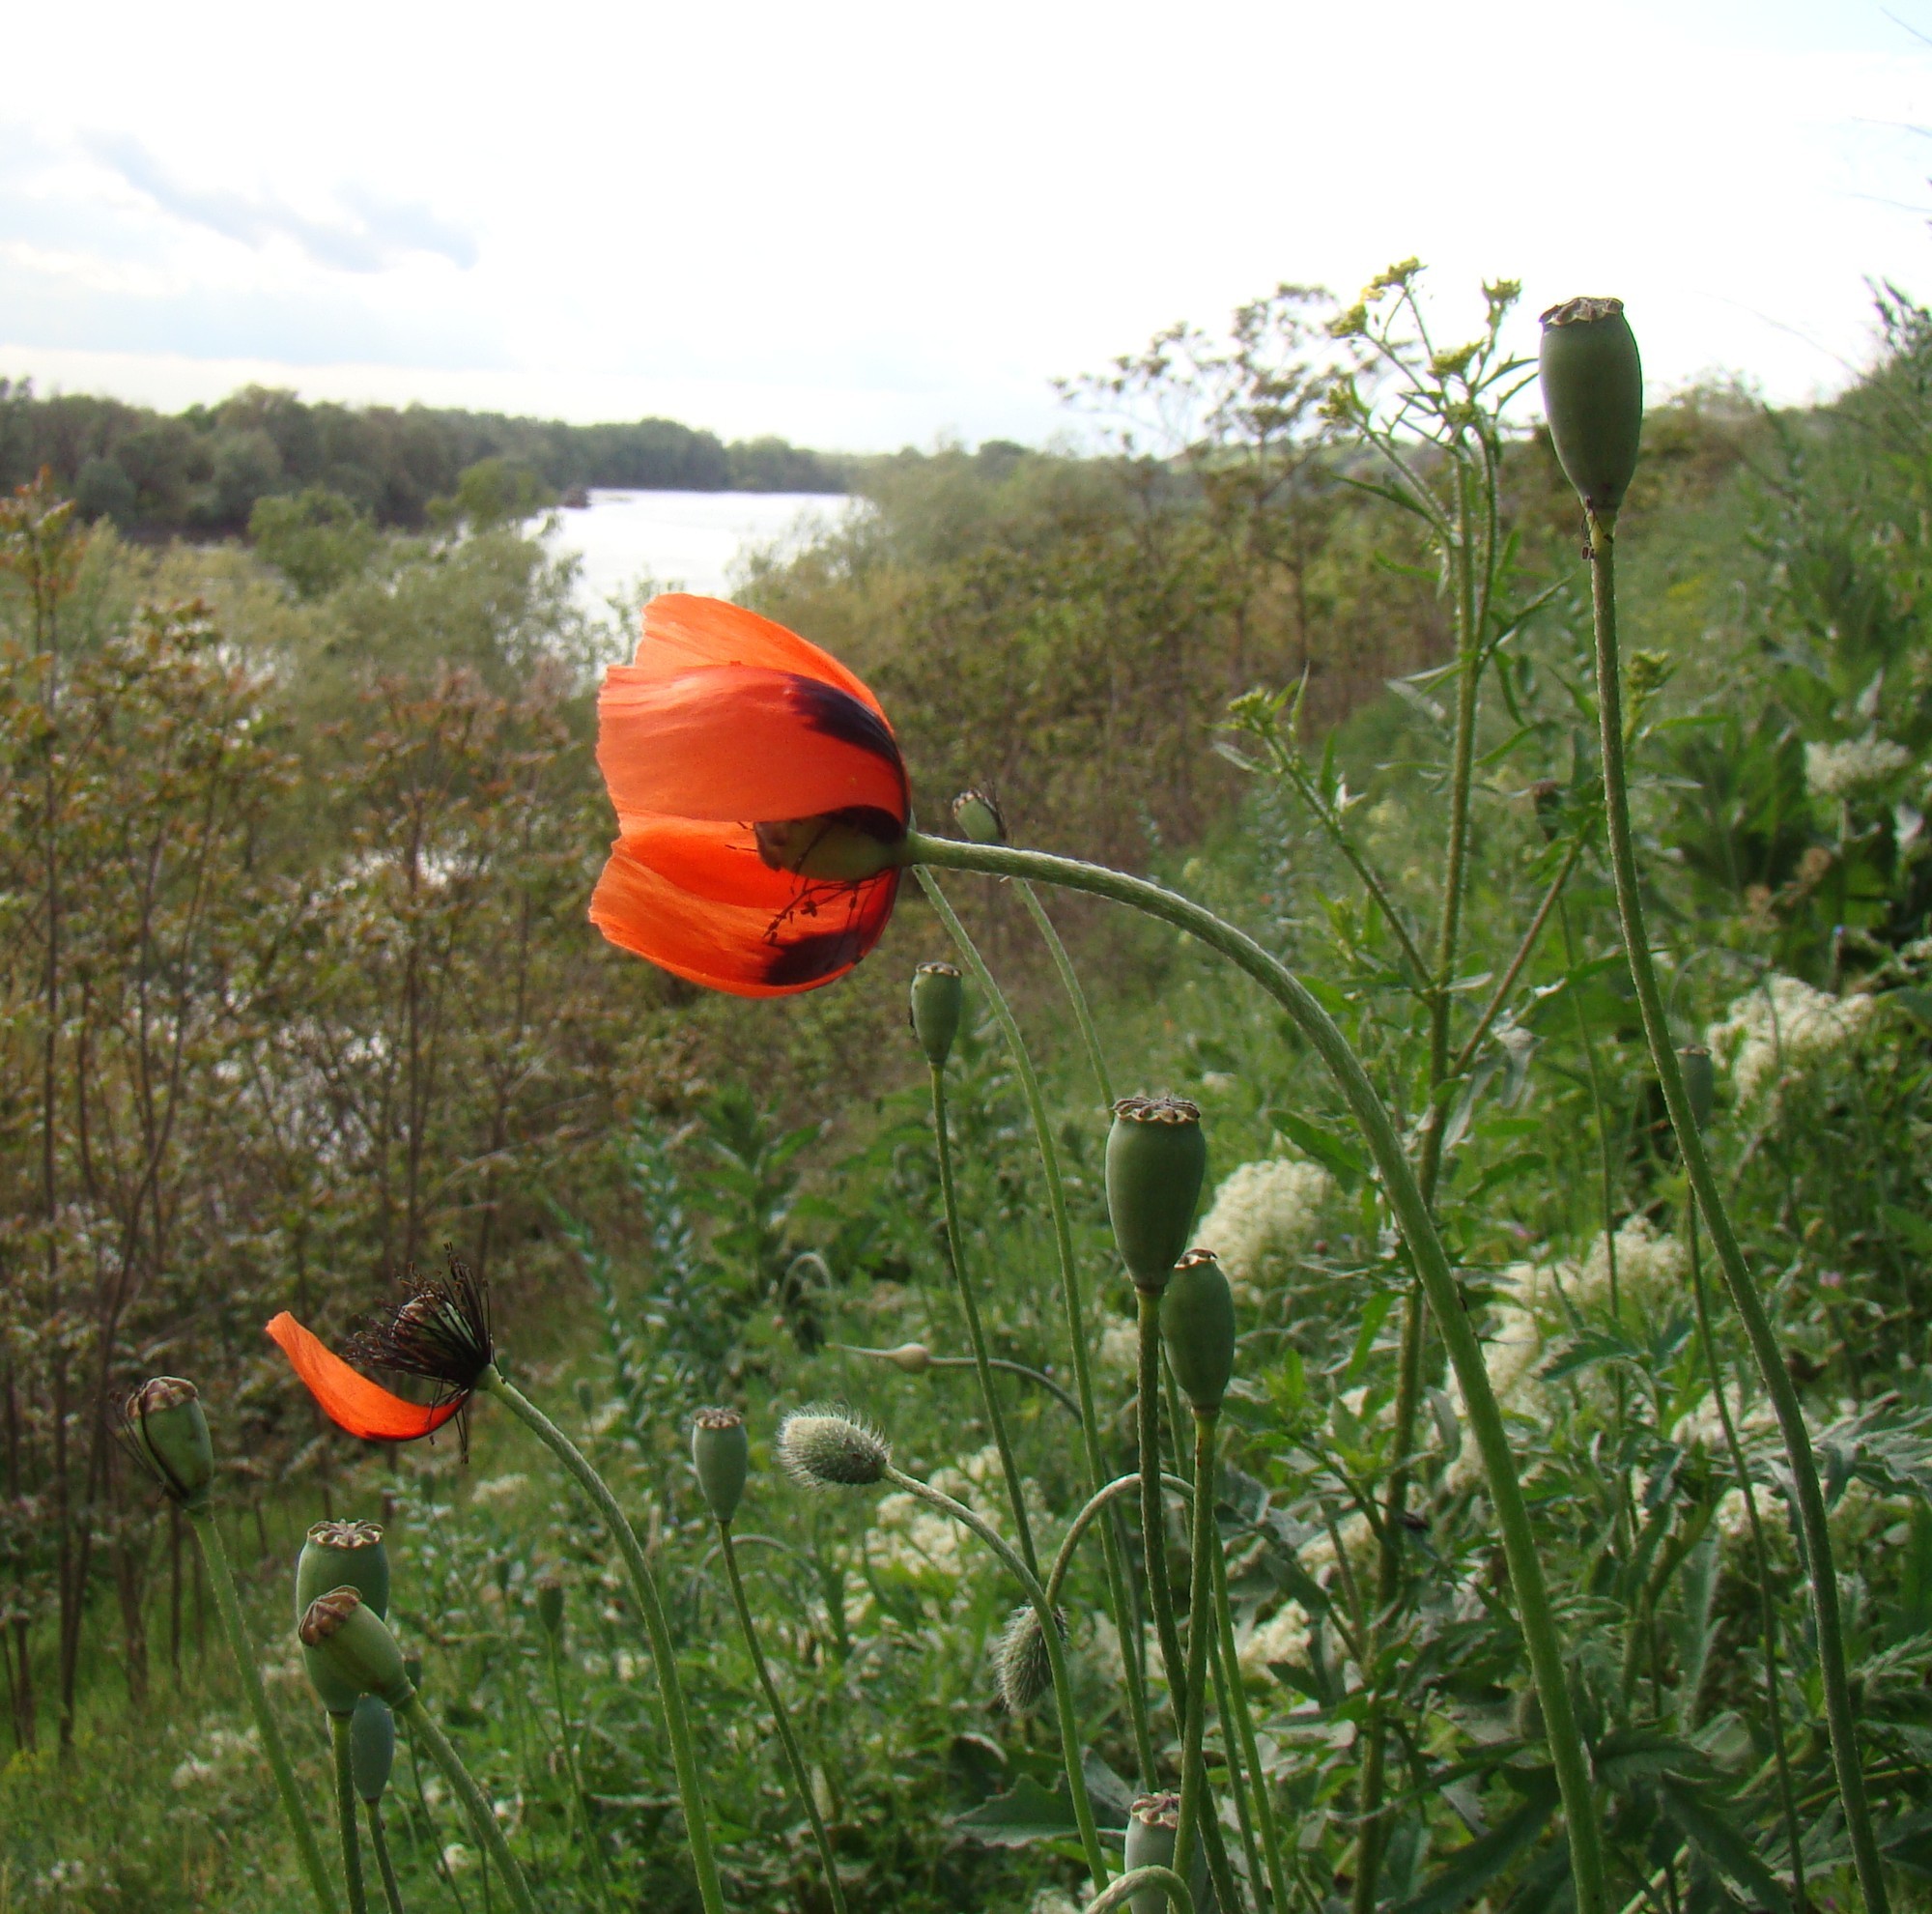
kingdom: Plantae
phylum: Tracheophyta
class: Magnoliopsida
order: Ranunculales
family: Papaveraceae
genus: Papaver
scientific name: Papaver dubium
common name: Long-headed poppy
